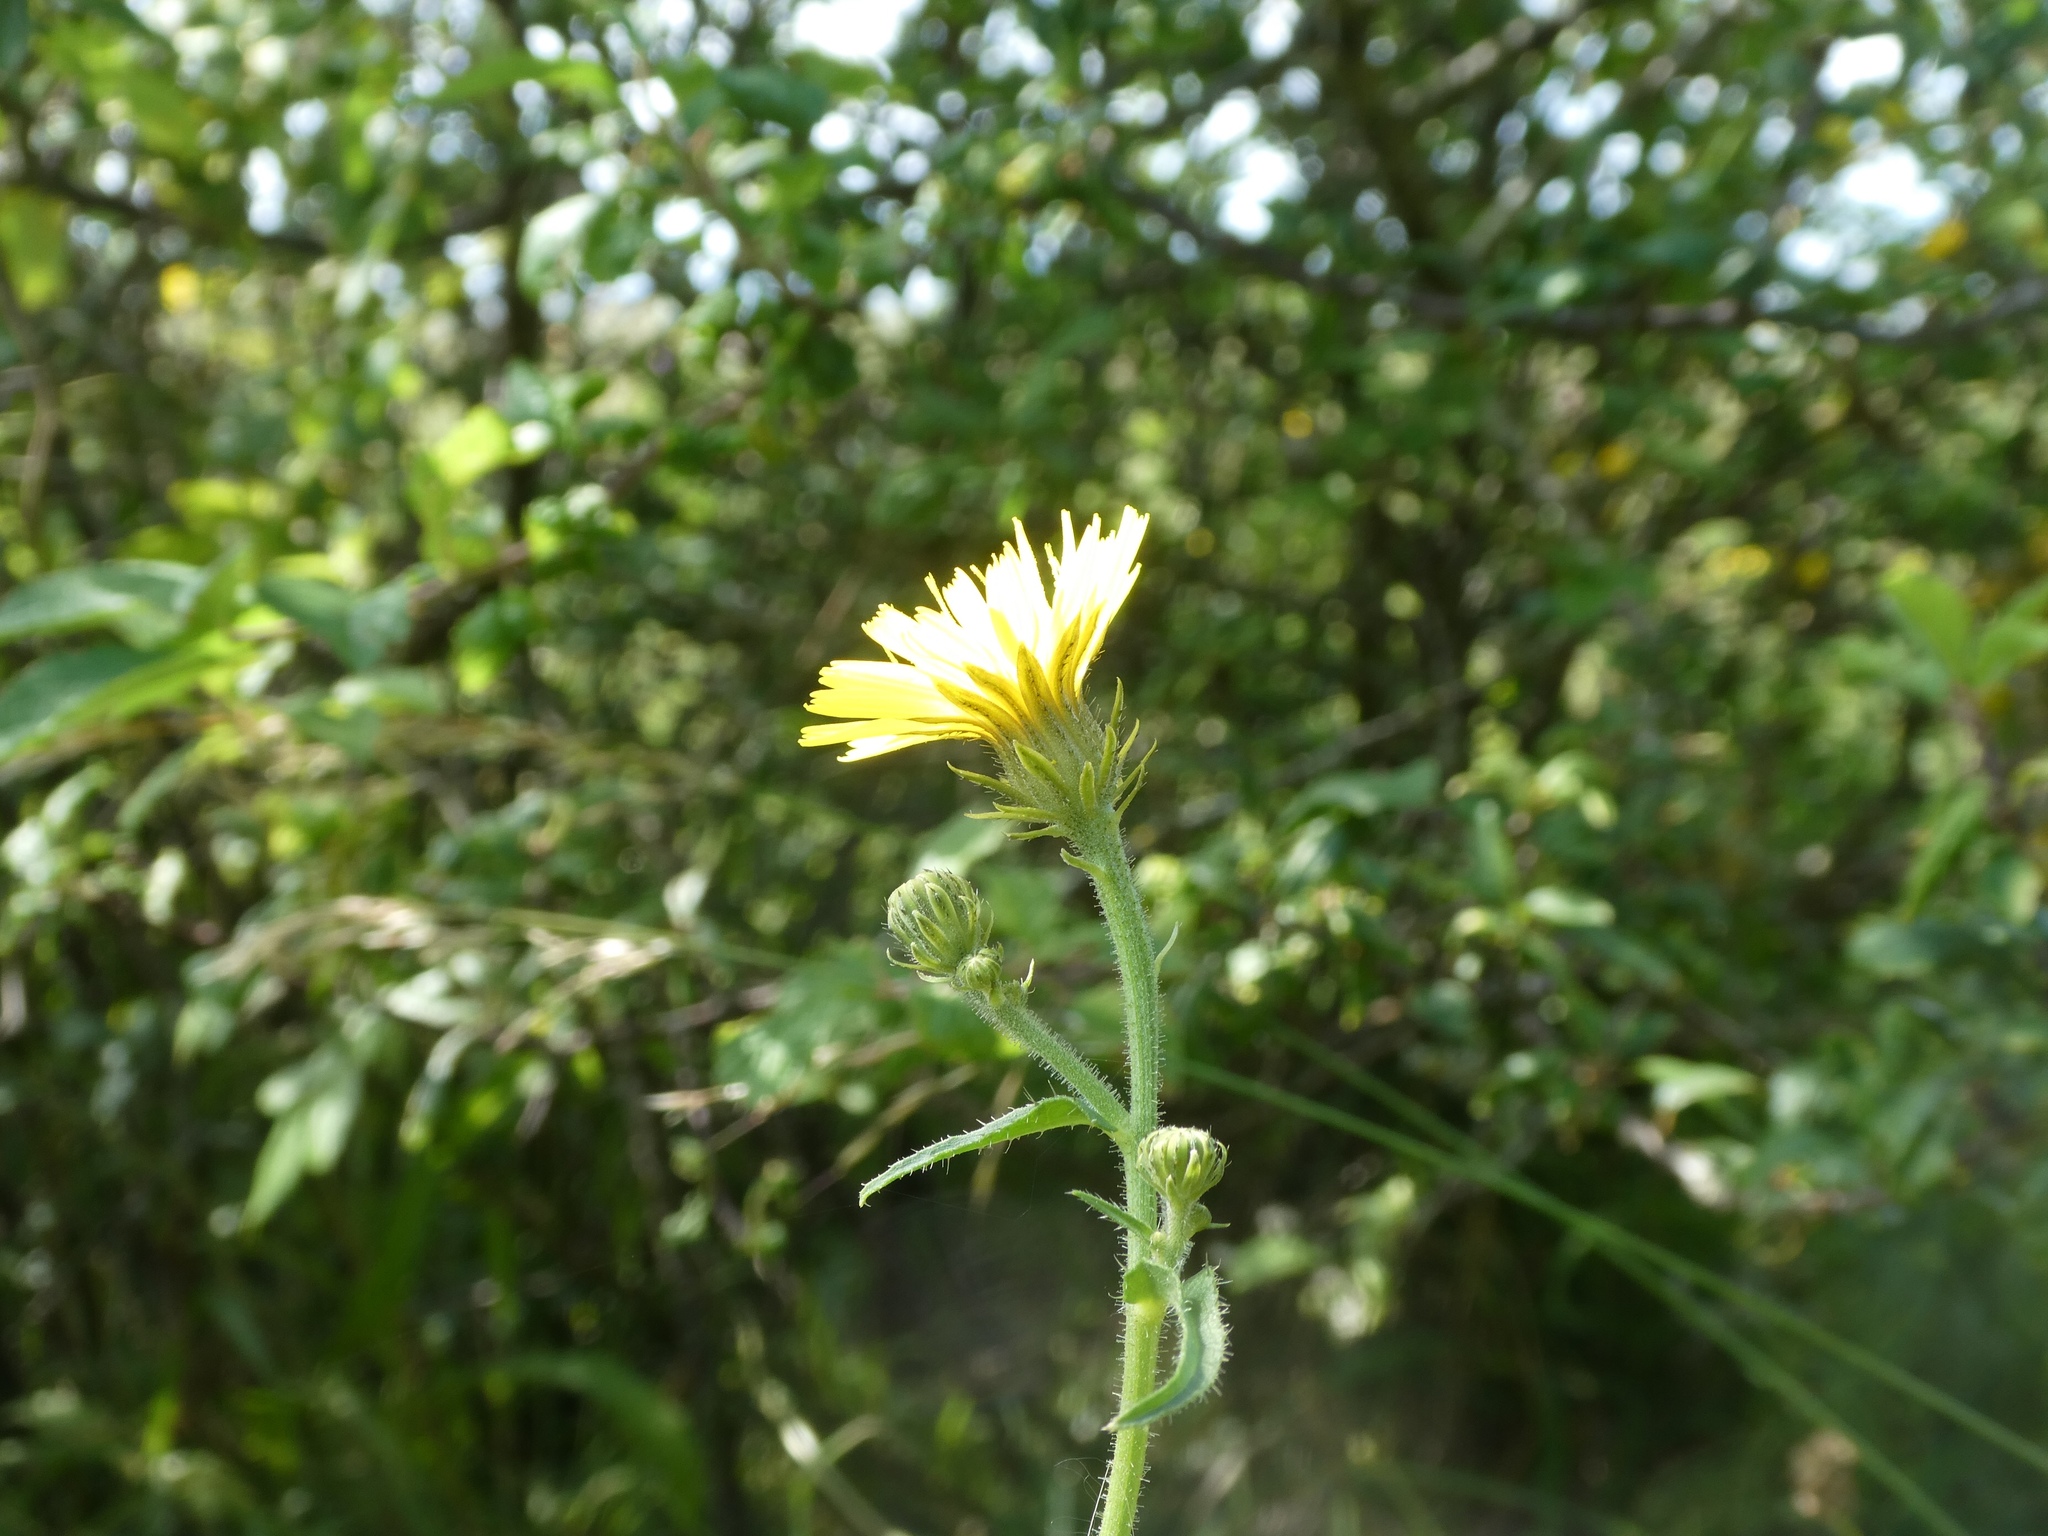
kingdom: Plantae
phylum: Tracheophyta
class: Magnoliopsida
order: Asterales
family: Asteraceae
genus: Picris
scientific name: Picris hieracioides
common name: Hawkweed oxtongue
